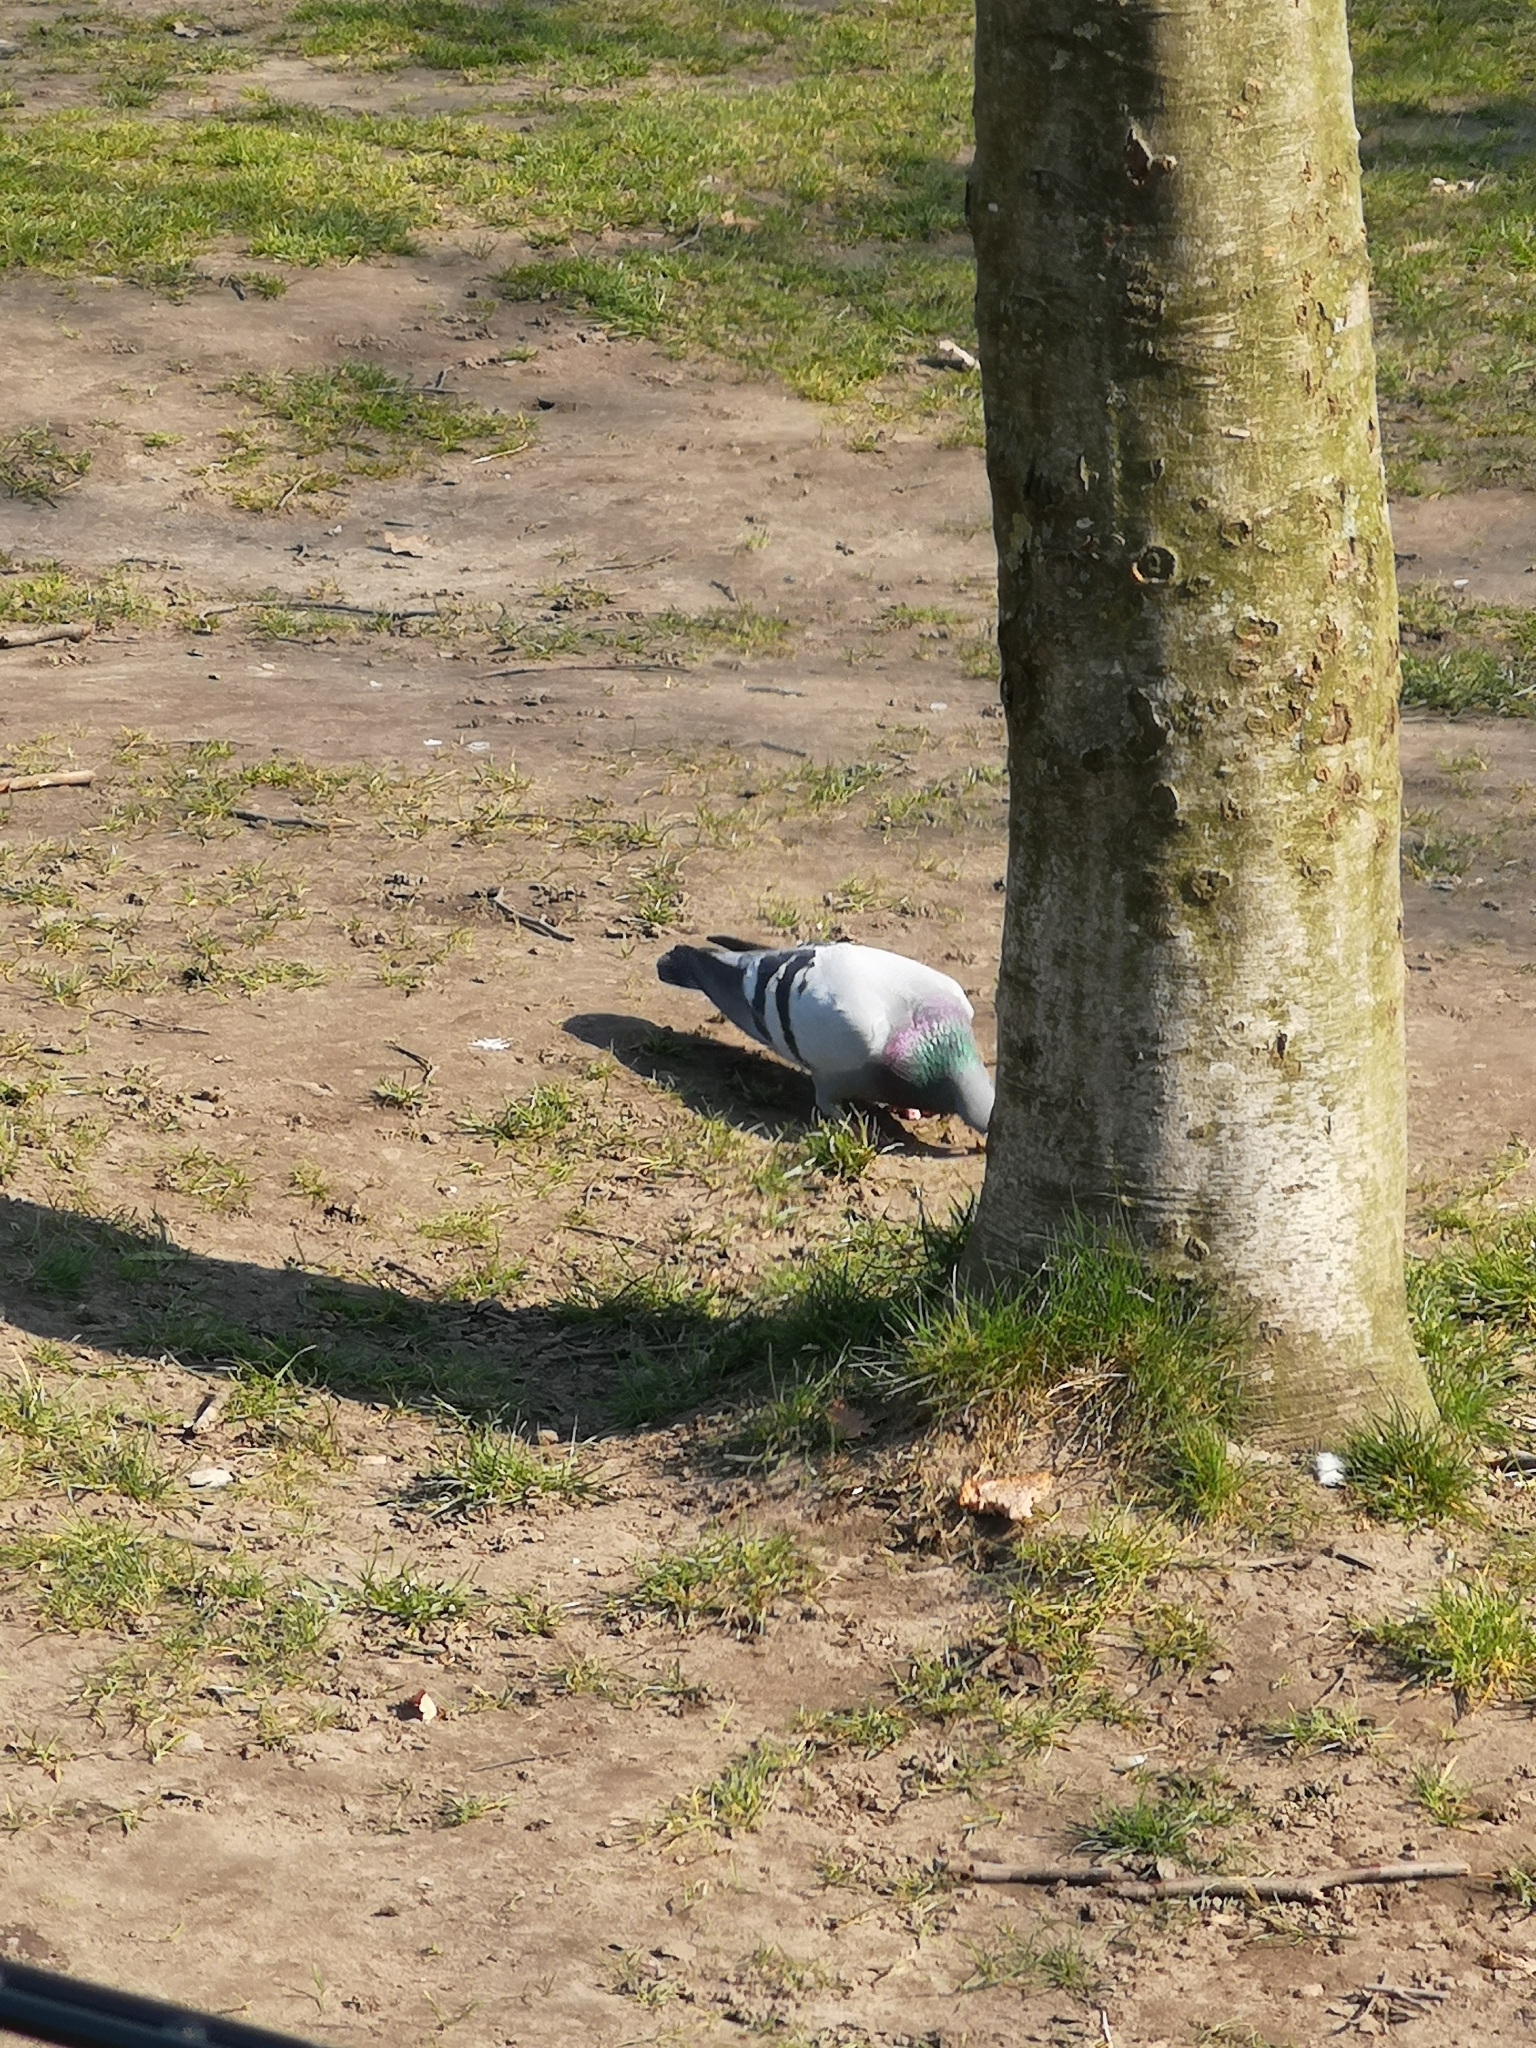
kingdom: Animalia
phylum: Chordata
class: Aves
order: Columbiformes
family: Columbidae
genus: Columba
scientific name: Columba livia
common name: Rock pigeon
